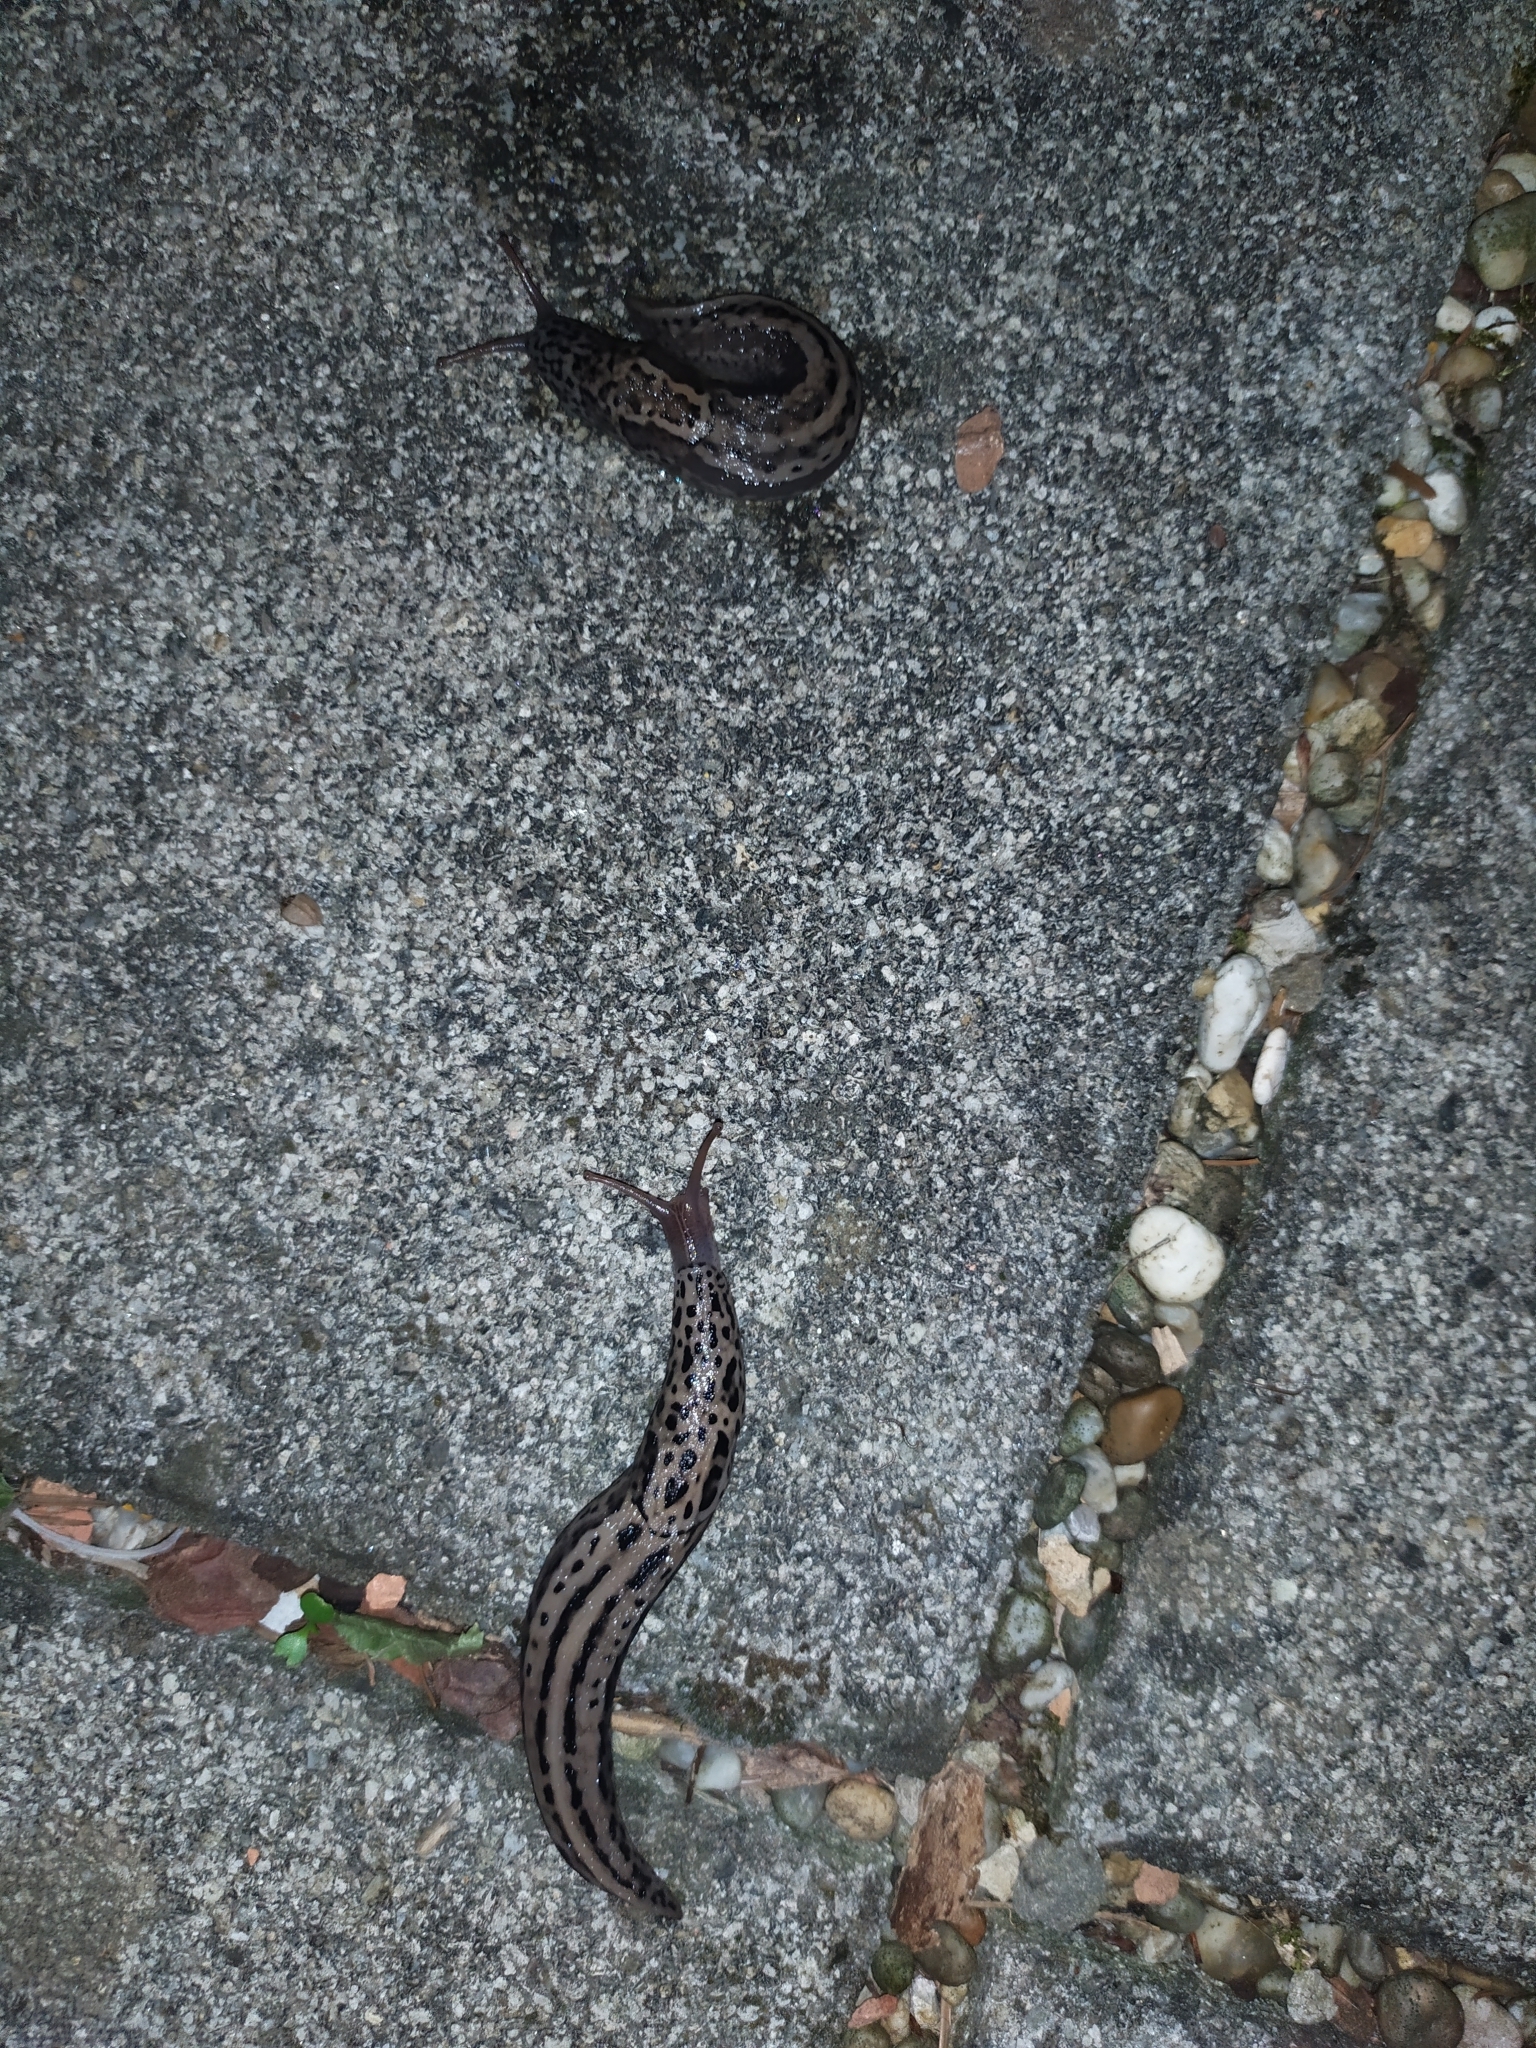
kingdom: Animalia
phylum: Mollusca
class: Gastropoda
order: Stylommatophora
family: Limacidae
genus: Limax
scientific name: Limax maximus
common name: Great grey slug
